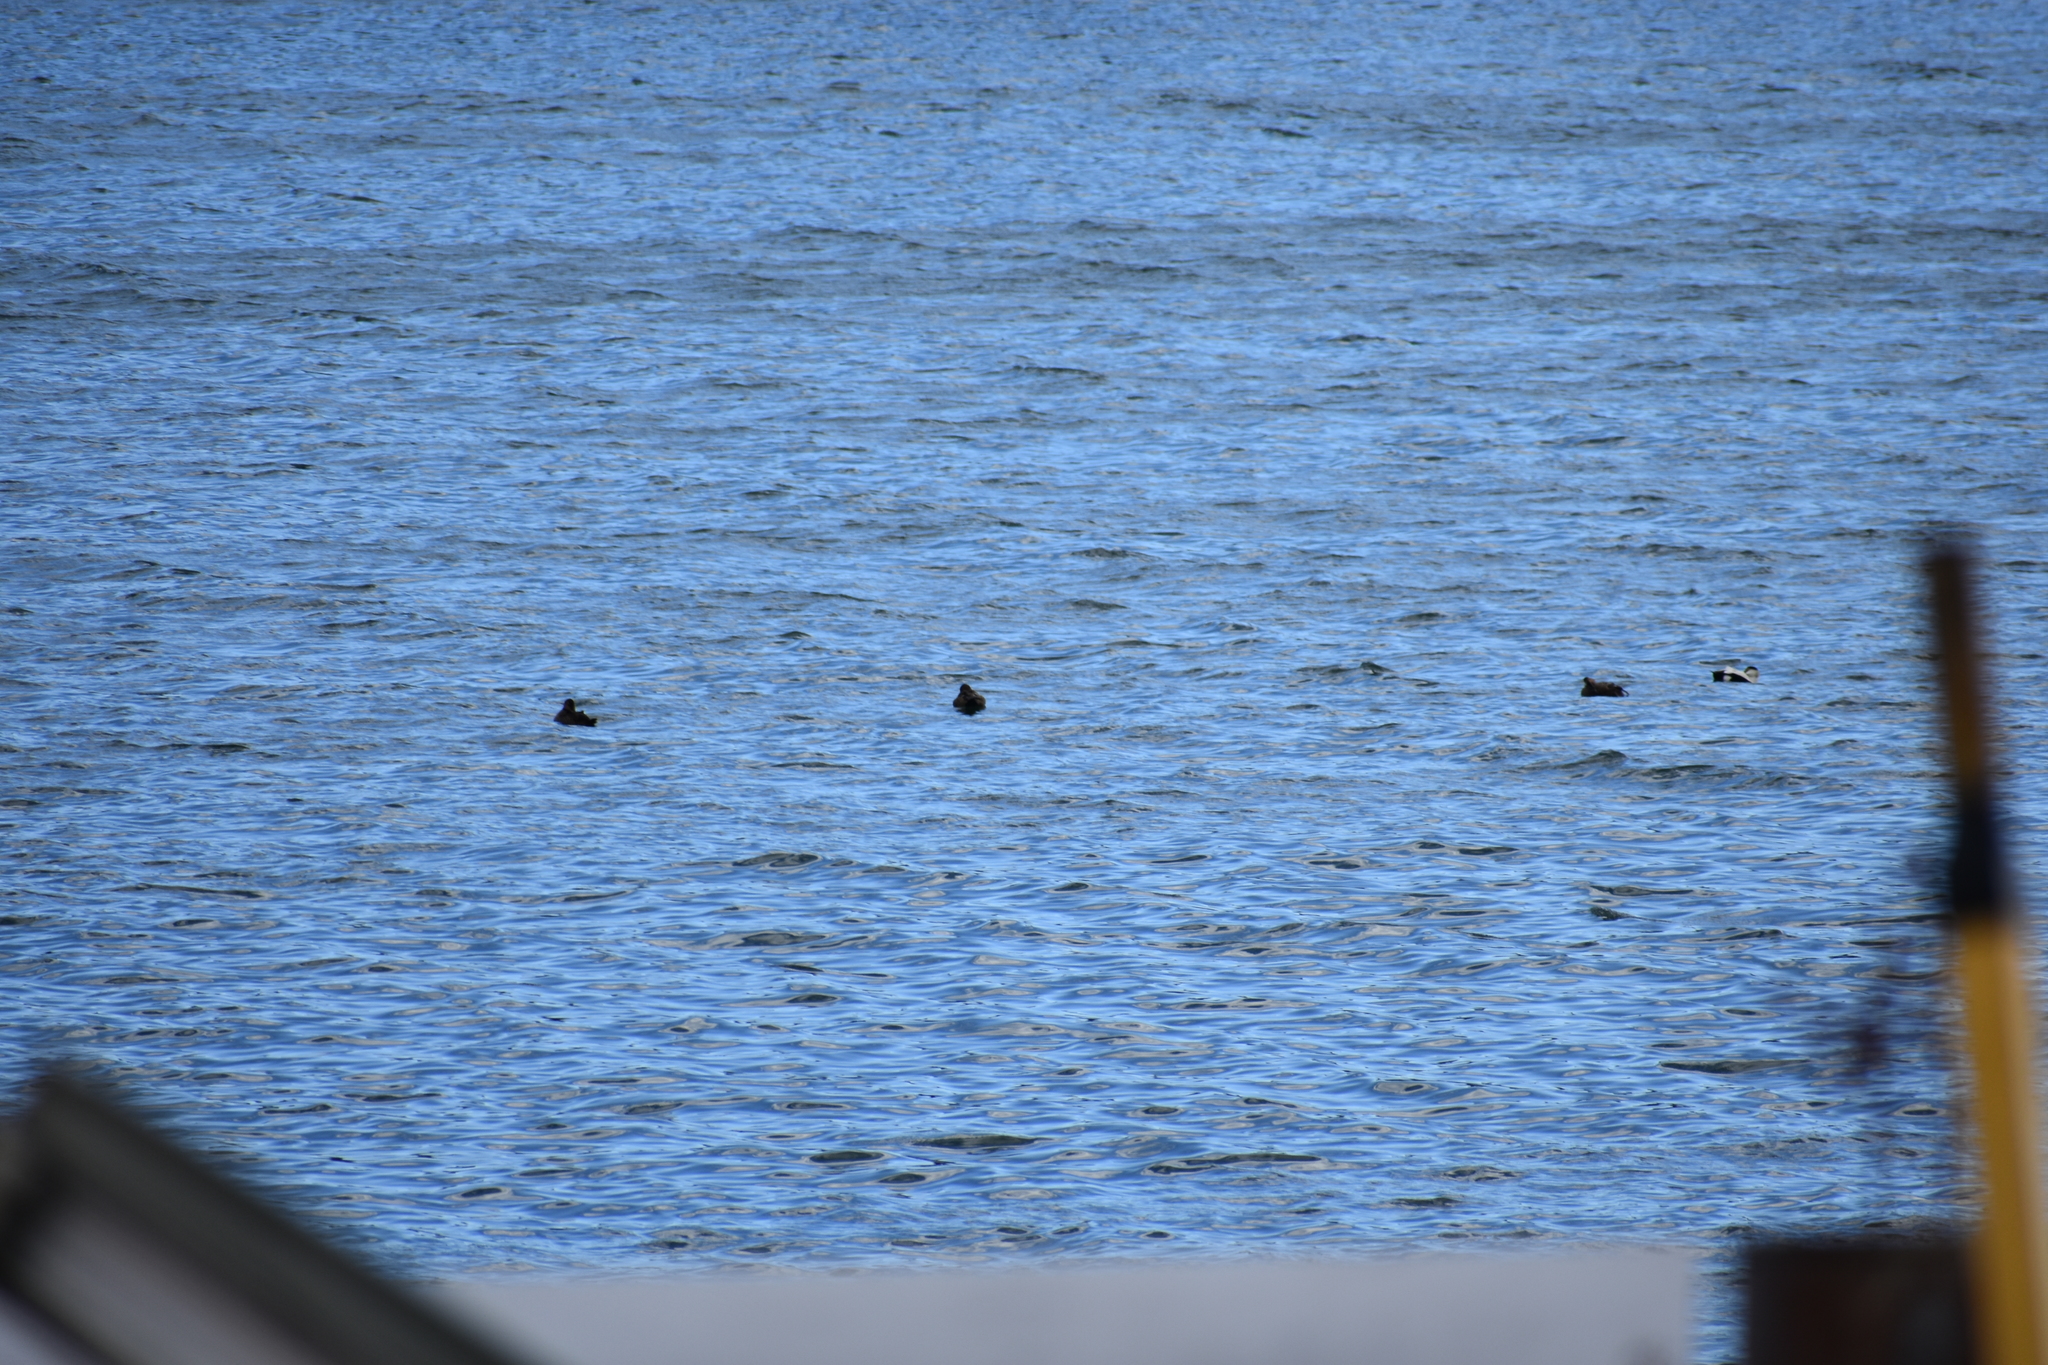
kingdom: Animalia
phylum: Chordata
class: Aves
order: Anseriformes
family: Anatidae
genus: Somateria
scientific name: Somateria mollissima
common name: Common eider
